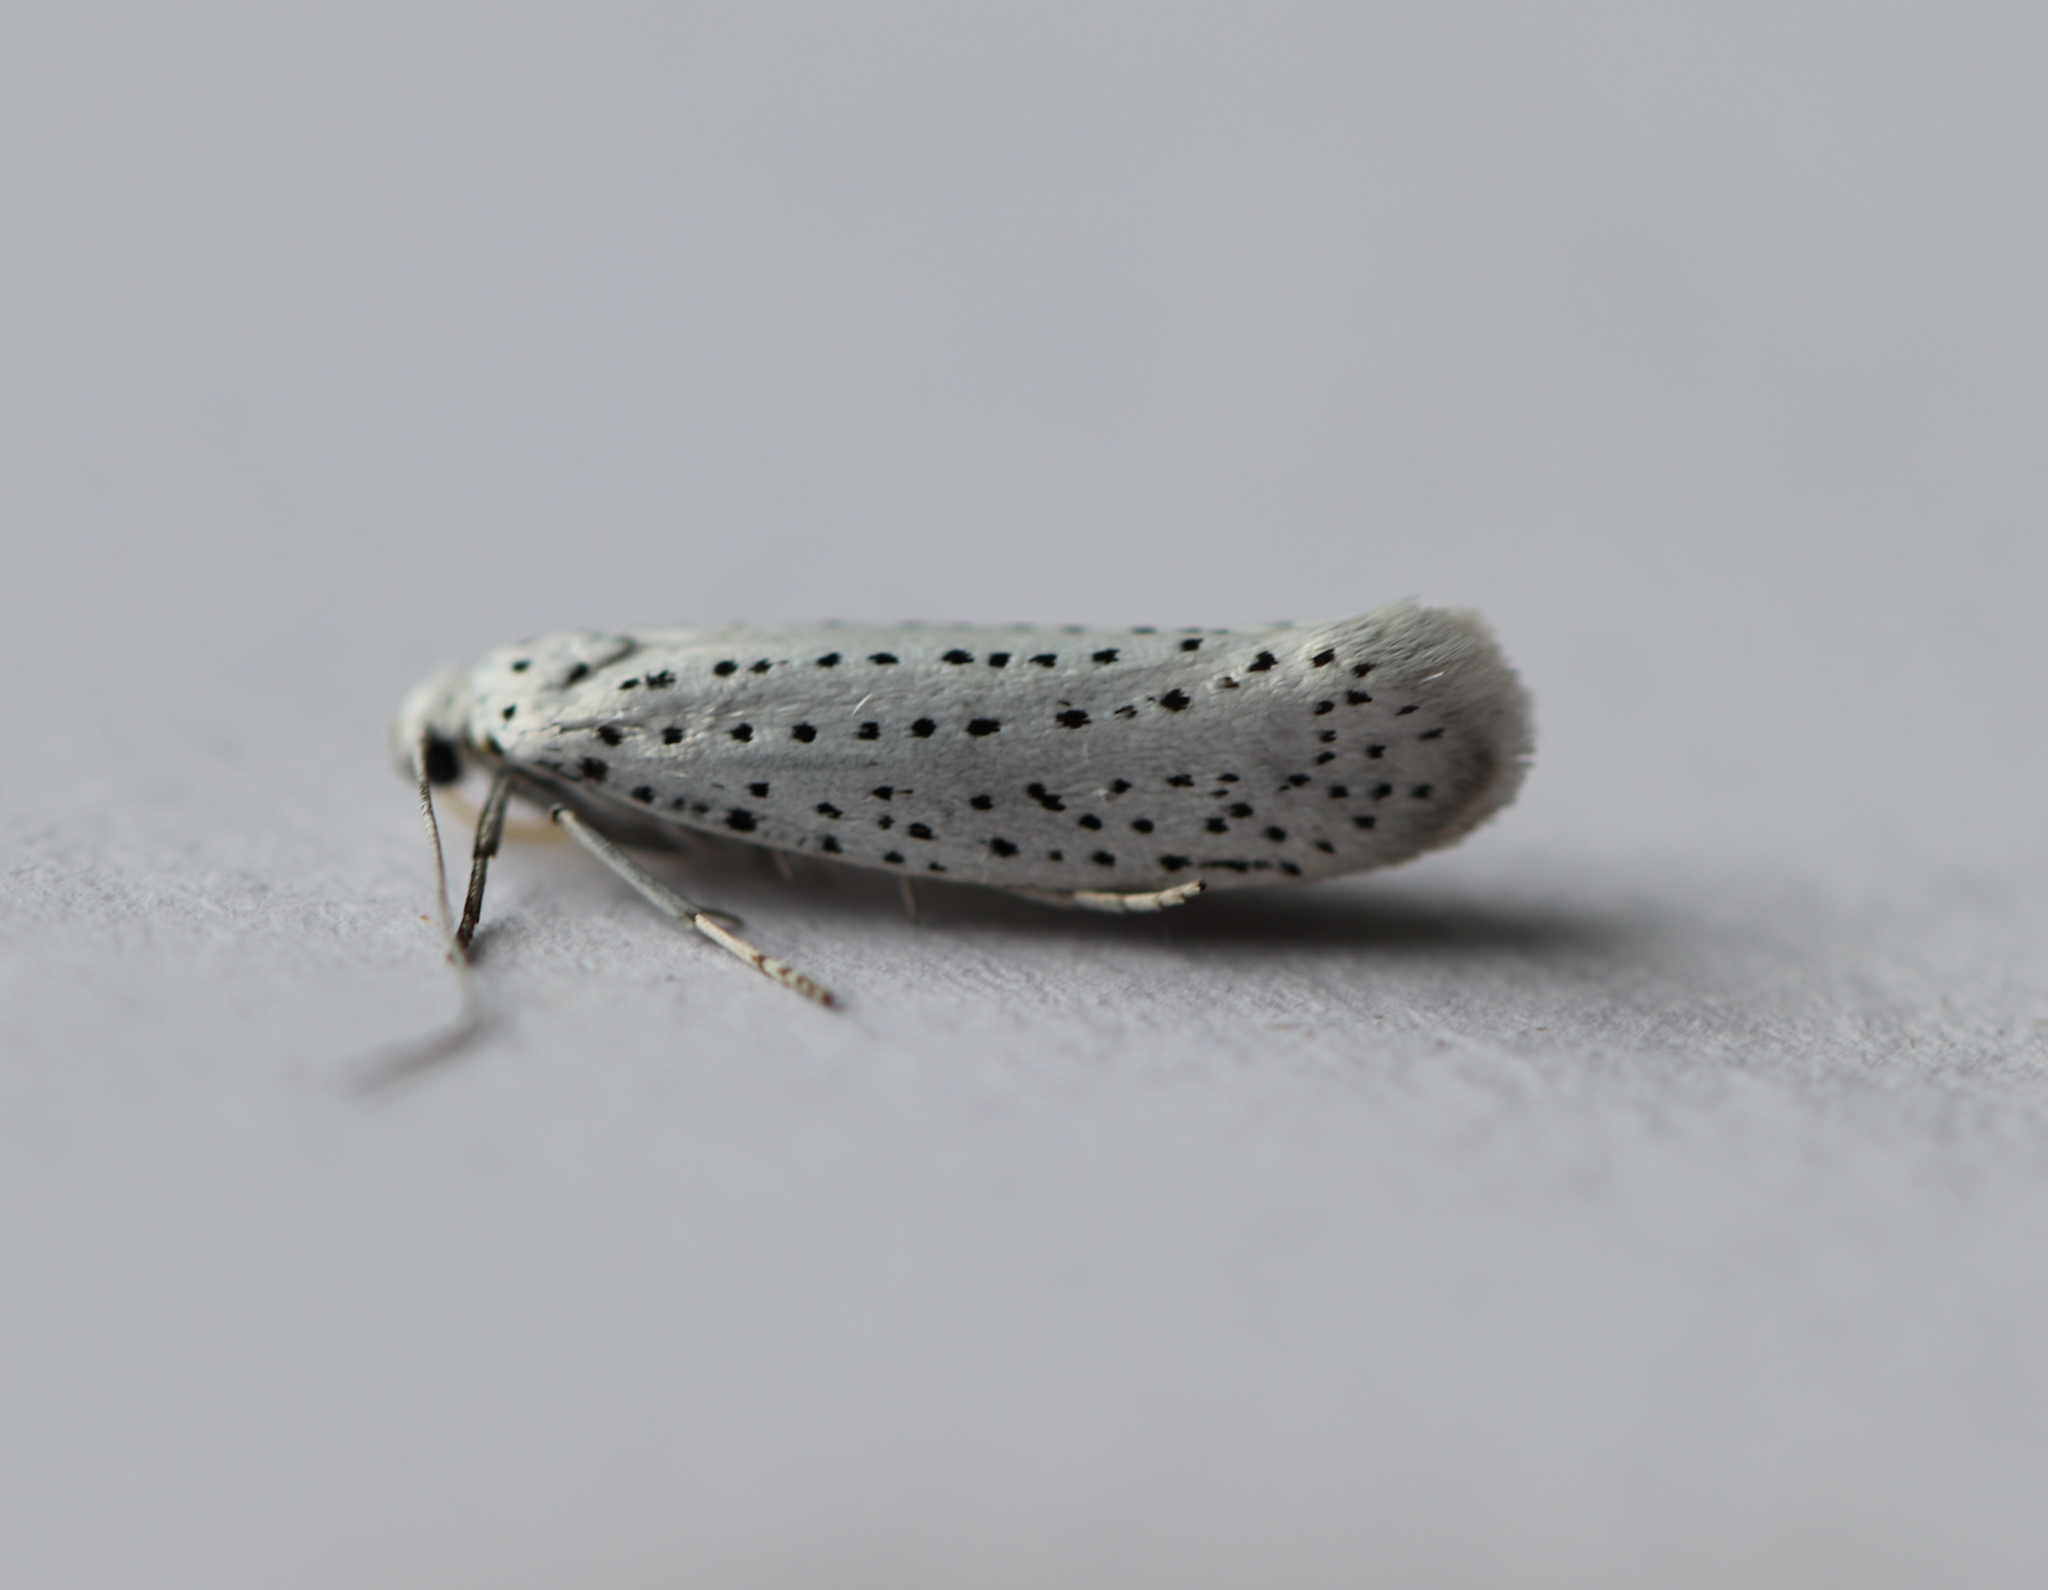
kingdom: Animalia
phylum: Arthropoda
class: Insecta
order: Lepidoptera
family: Yponomeutidae
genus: Yponomeuta
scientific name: Yponomeuta evonymella
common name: Bird-cherry ermine
